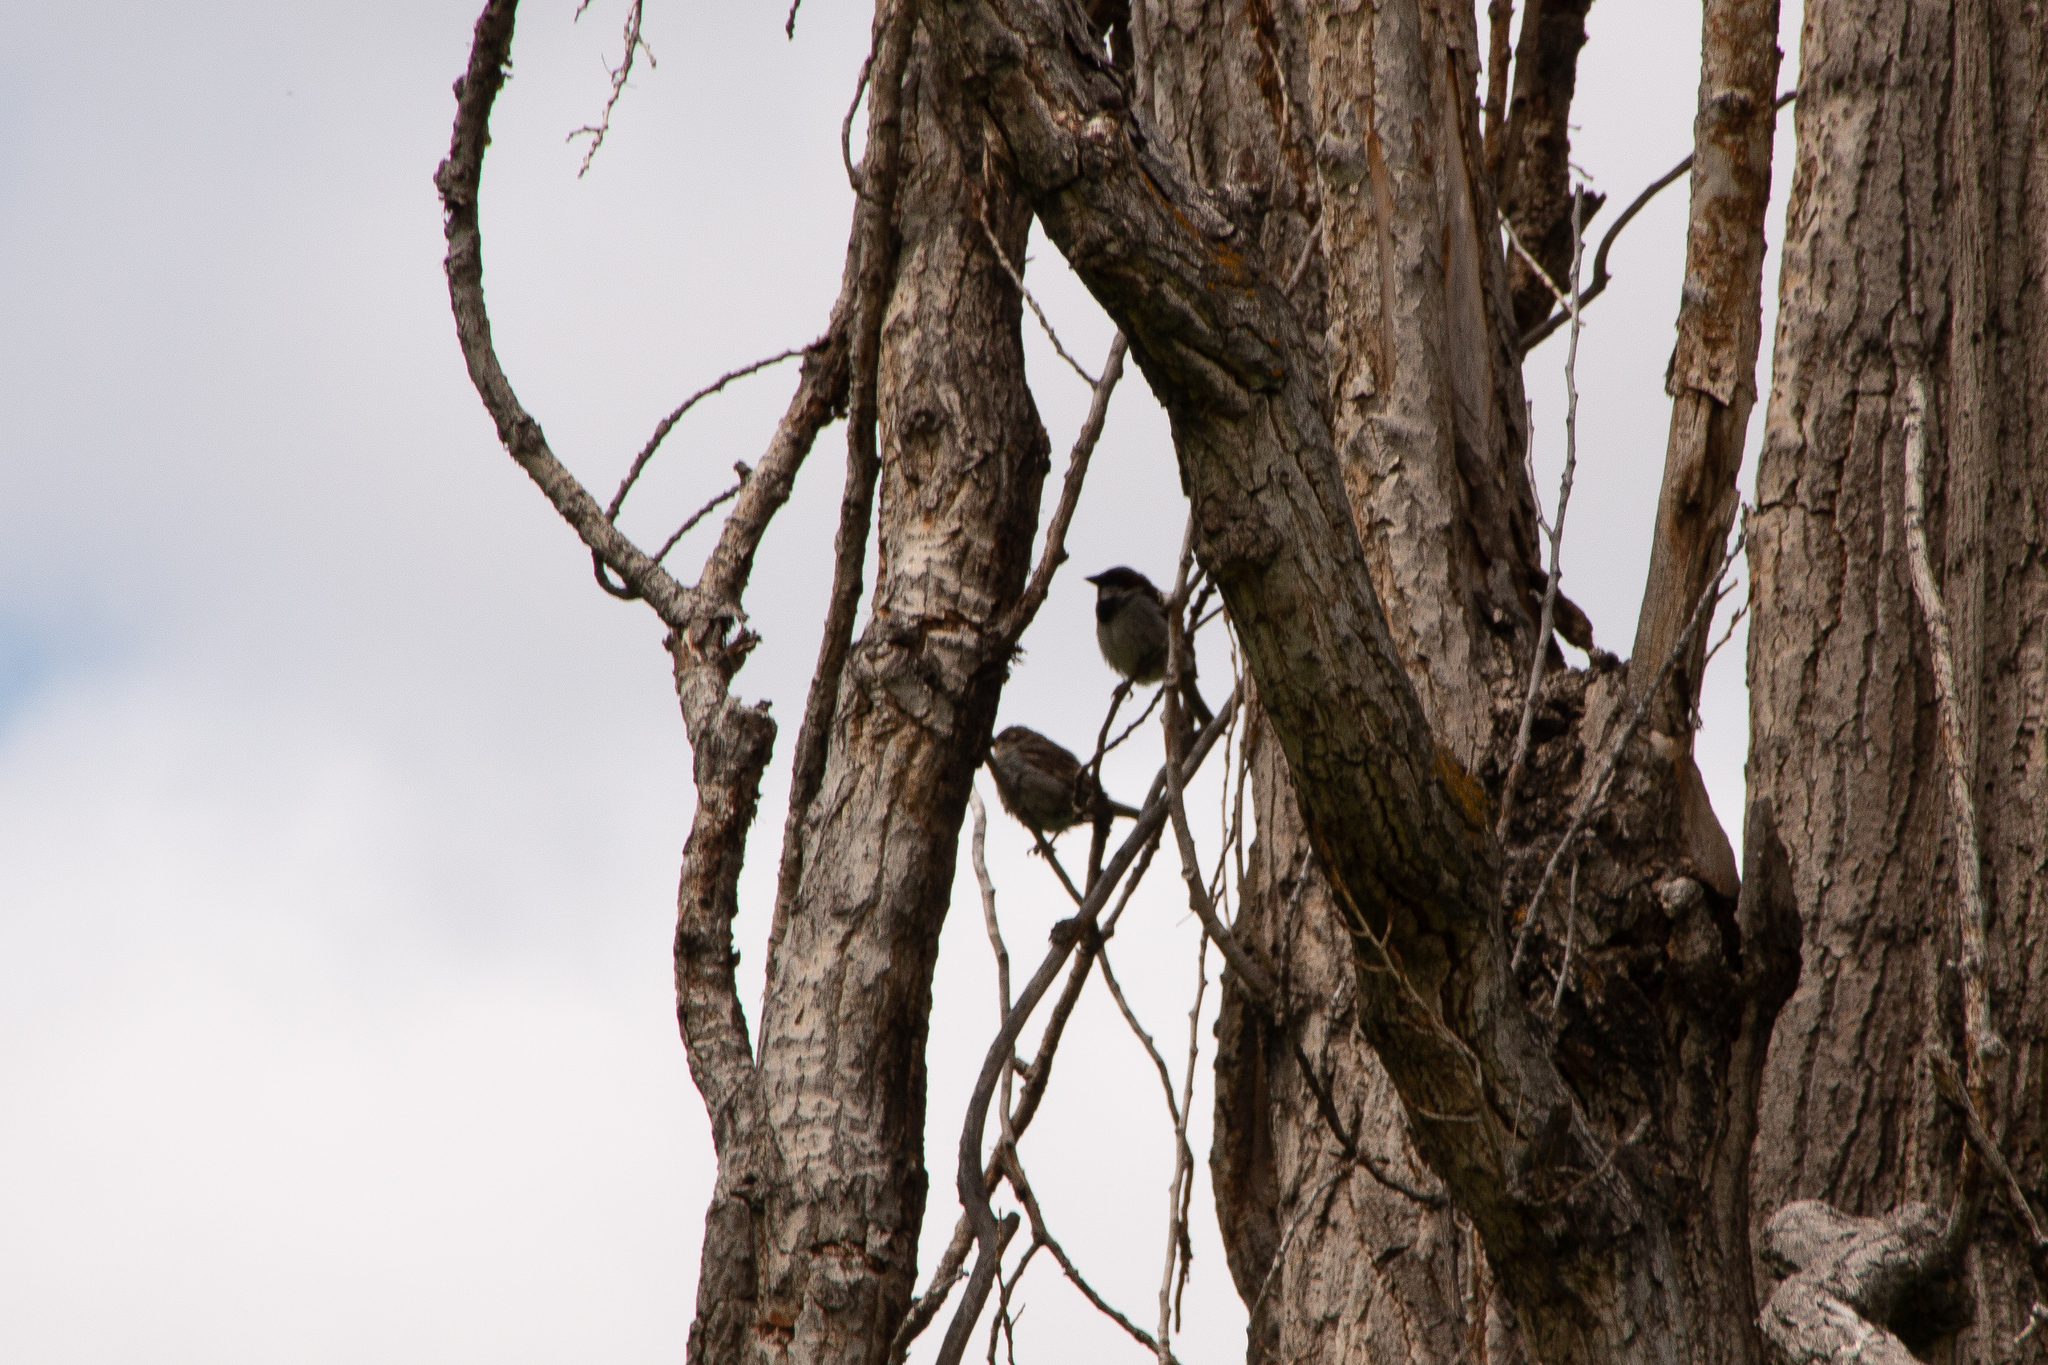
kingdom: Animalia
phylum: Chordata
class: Aves
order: Passeriformes
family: Passeridae
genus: Passer
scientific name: Passer domesticus
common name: House sparrow
